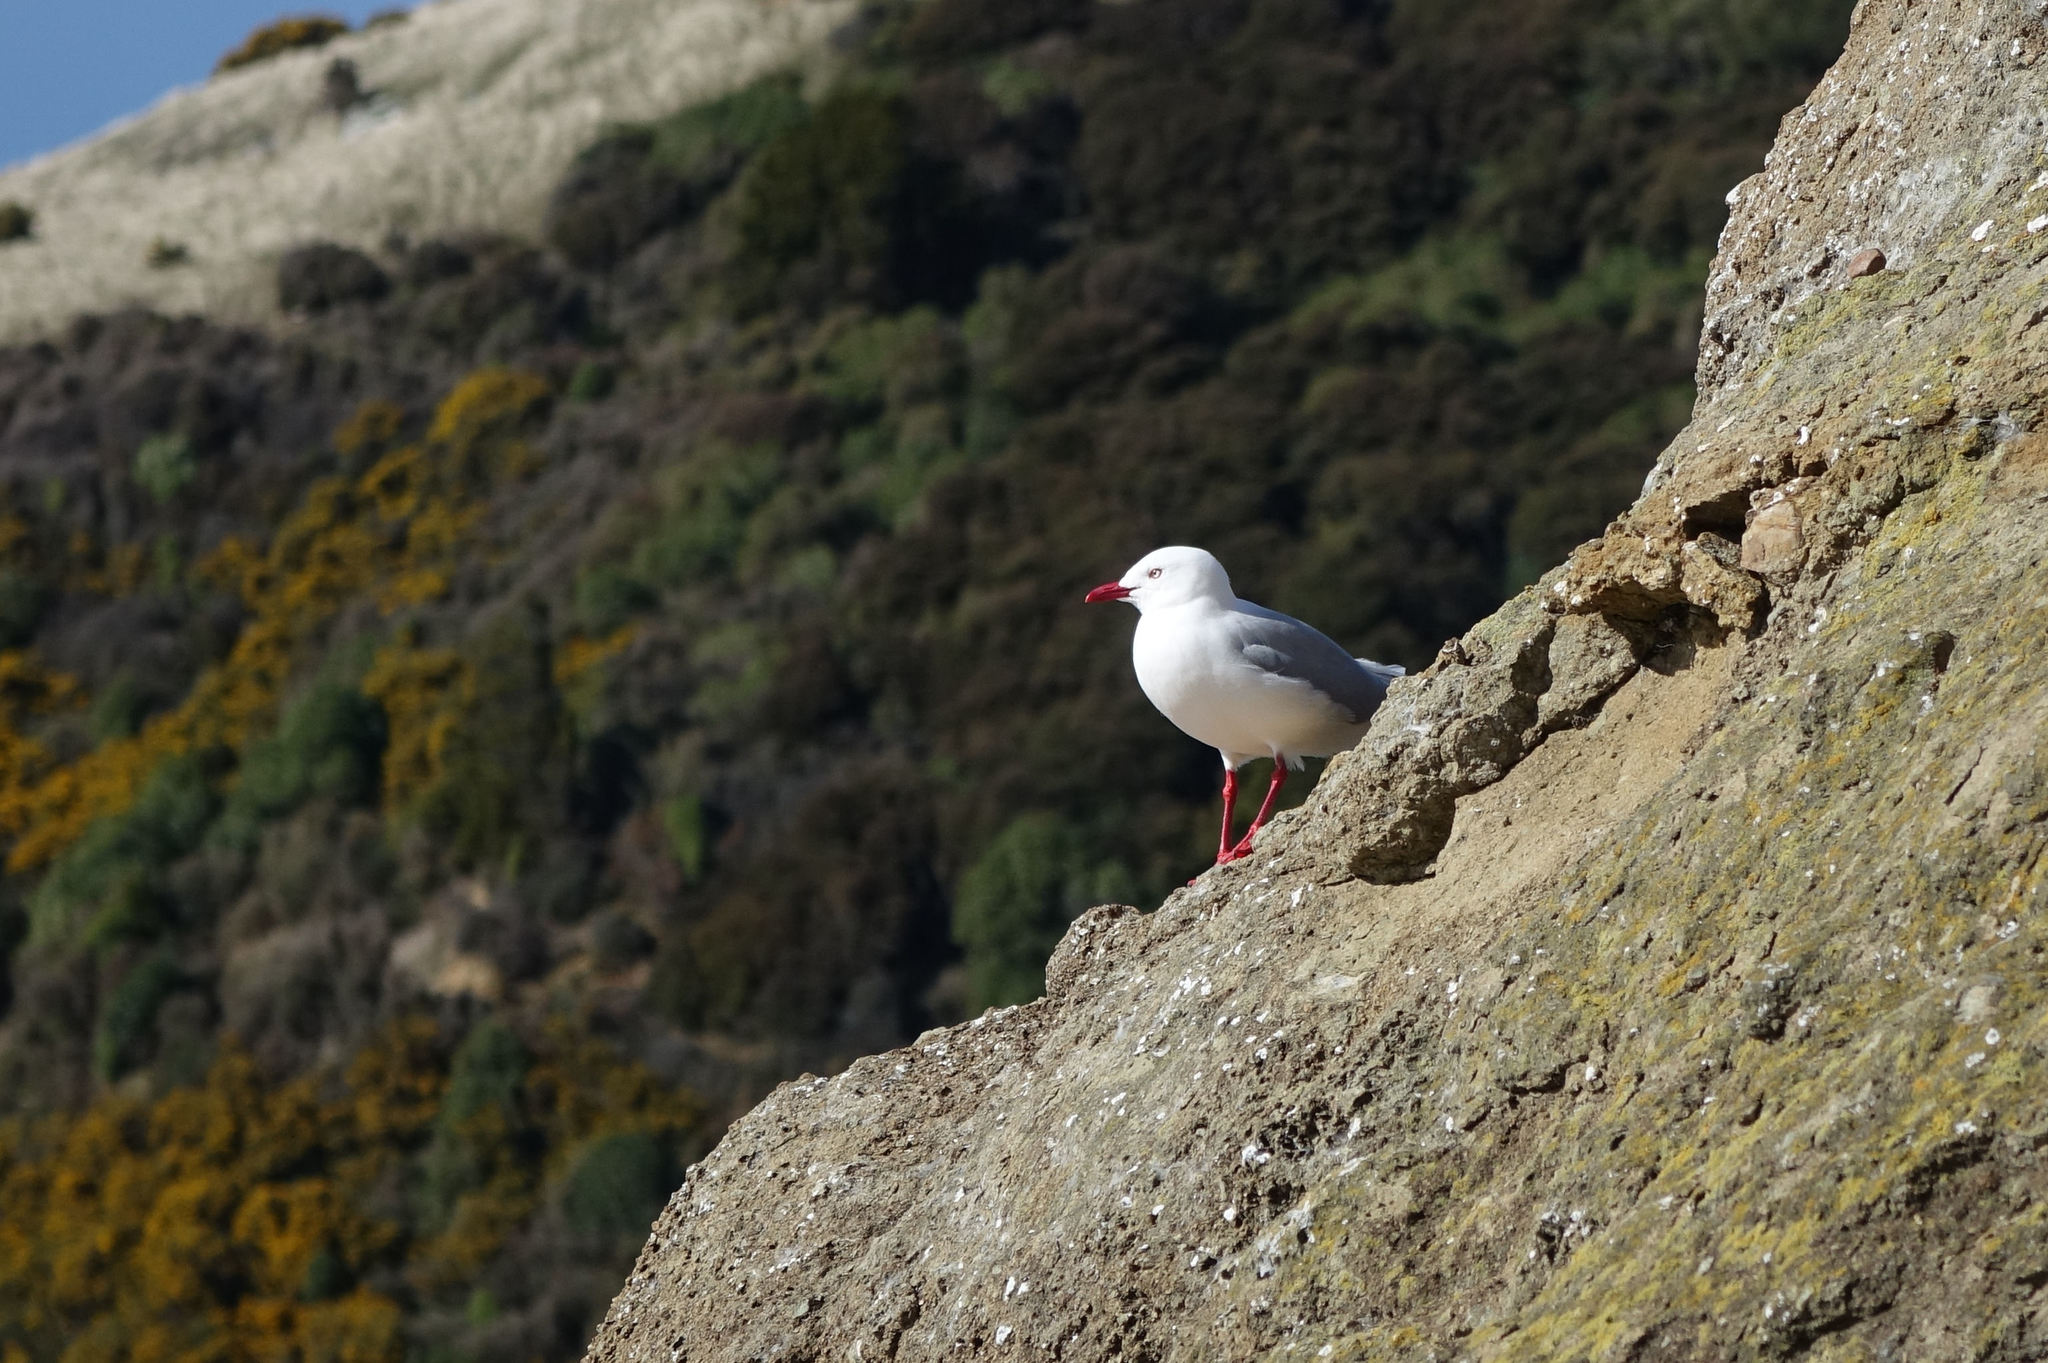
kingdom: Animalia
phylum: Chordata
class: Aves
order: Charadriiformes
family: Laridae
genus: Chroicocephalus
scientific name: Chroicocephalus novaehollandiae
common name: Silver gull
